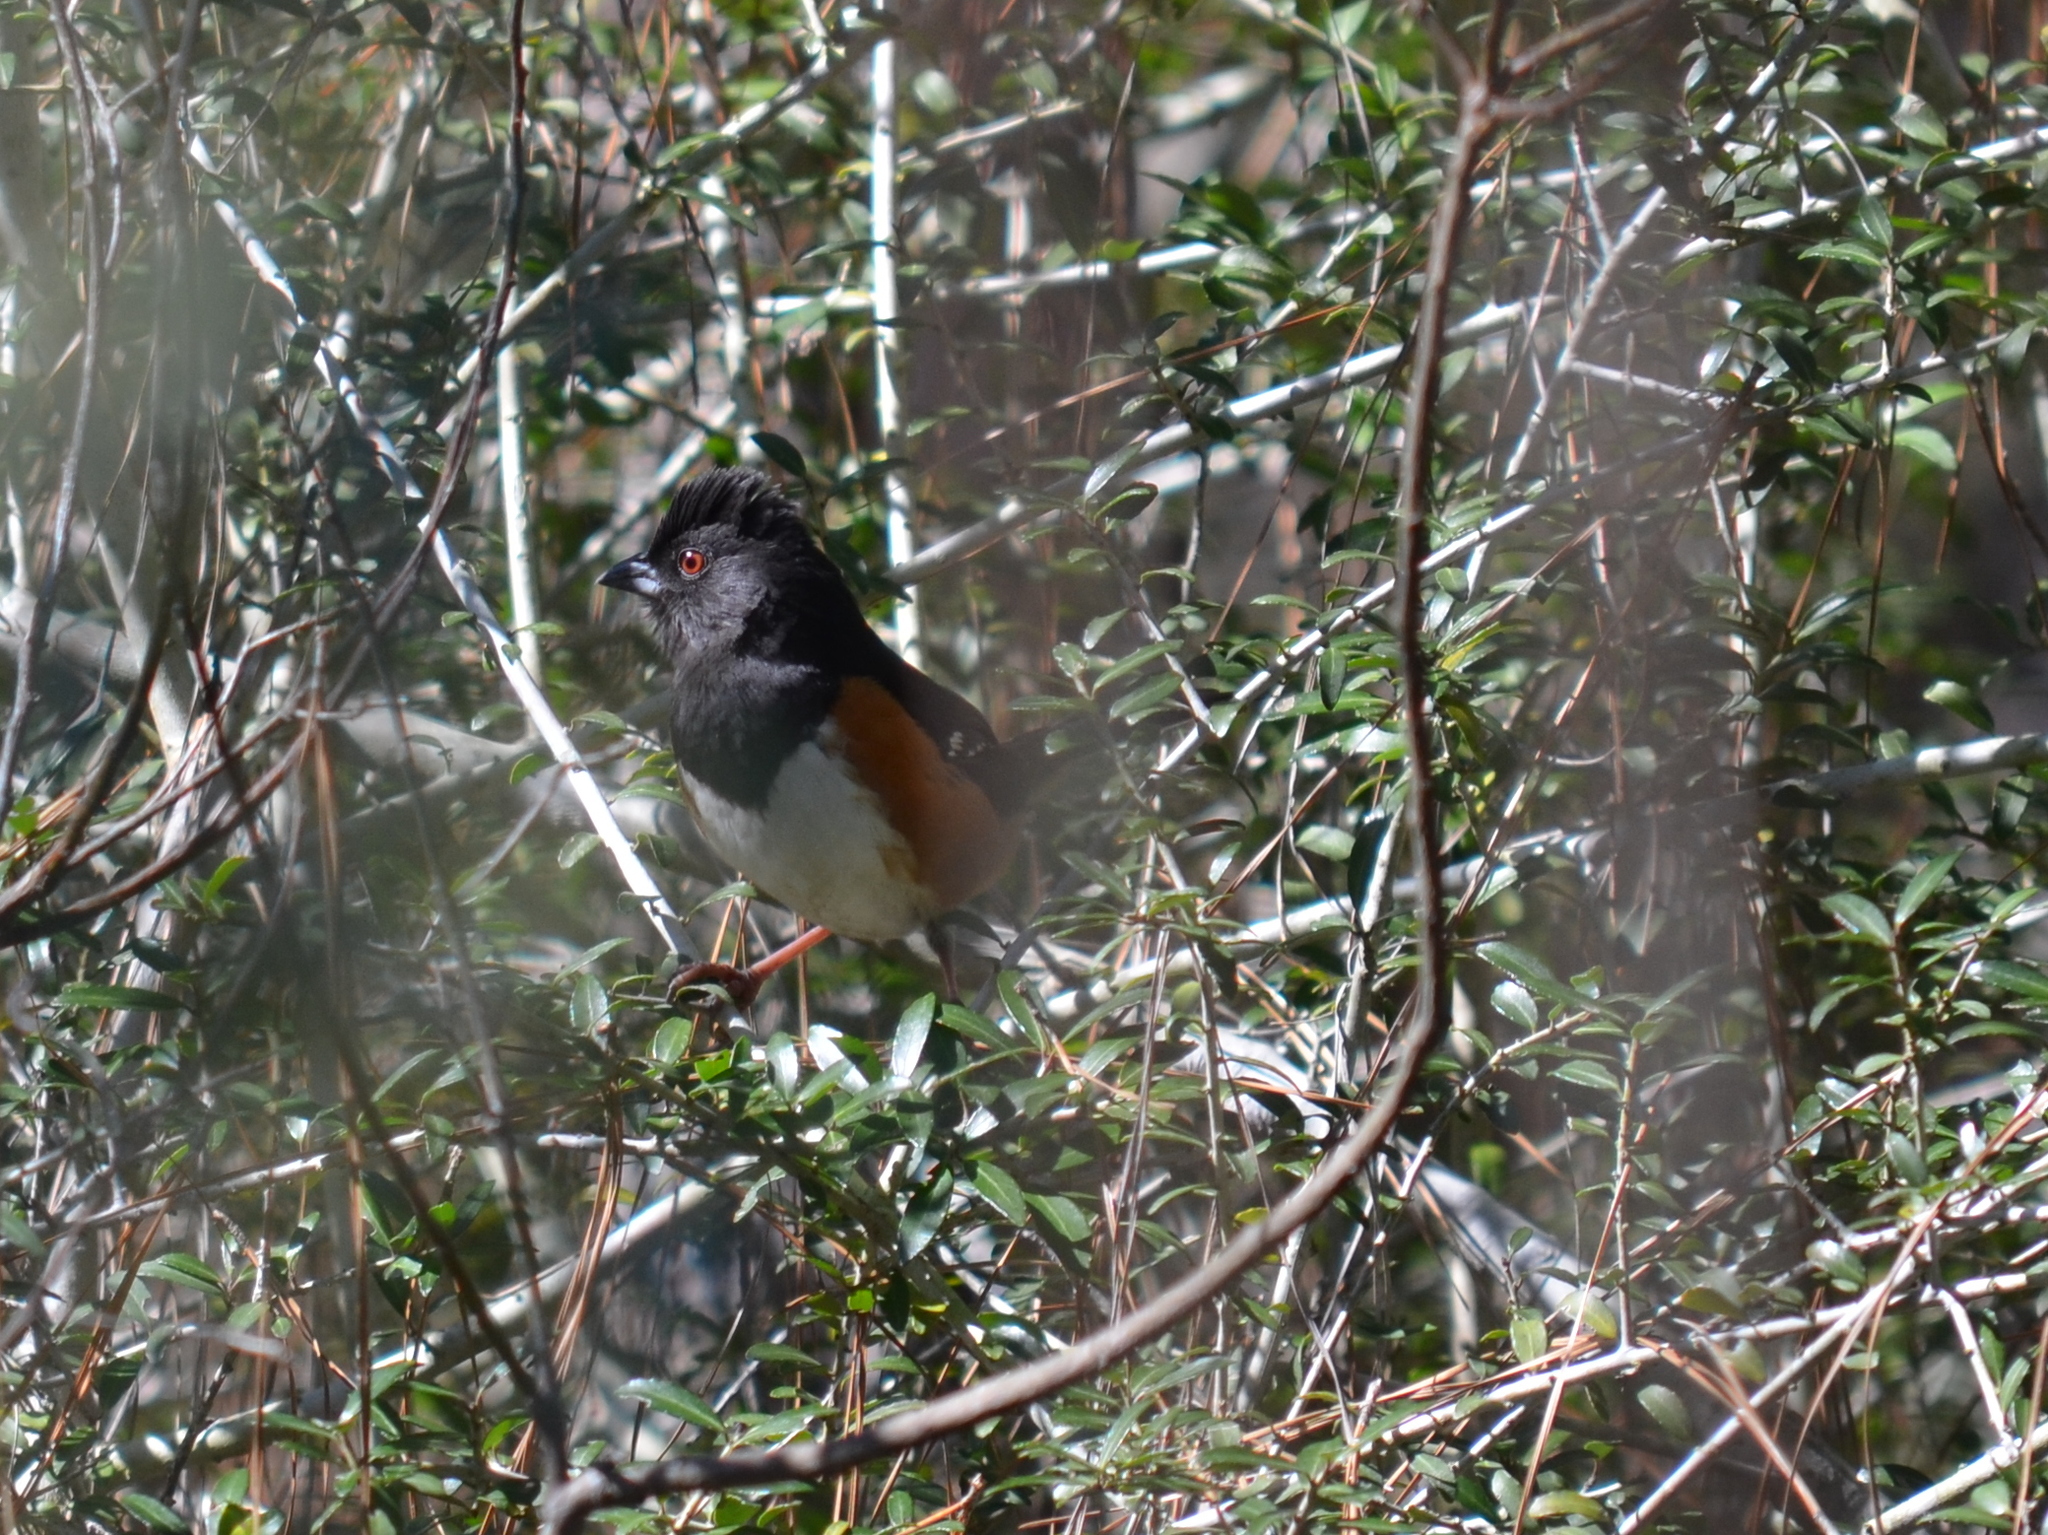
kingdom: Animalia
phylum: Chordata
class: Aves
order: Passeriformes
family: Passerellidae
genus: Pipilo
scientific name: Pipilo erythrophthalmus
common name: Eastern towhee
